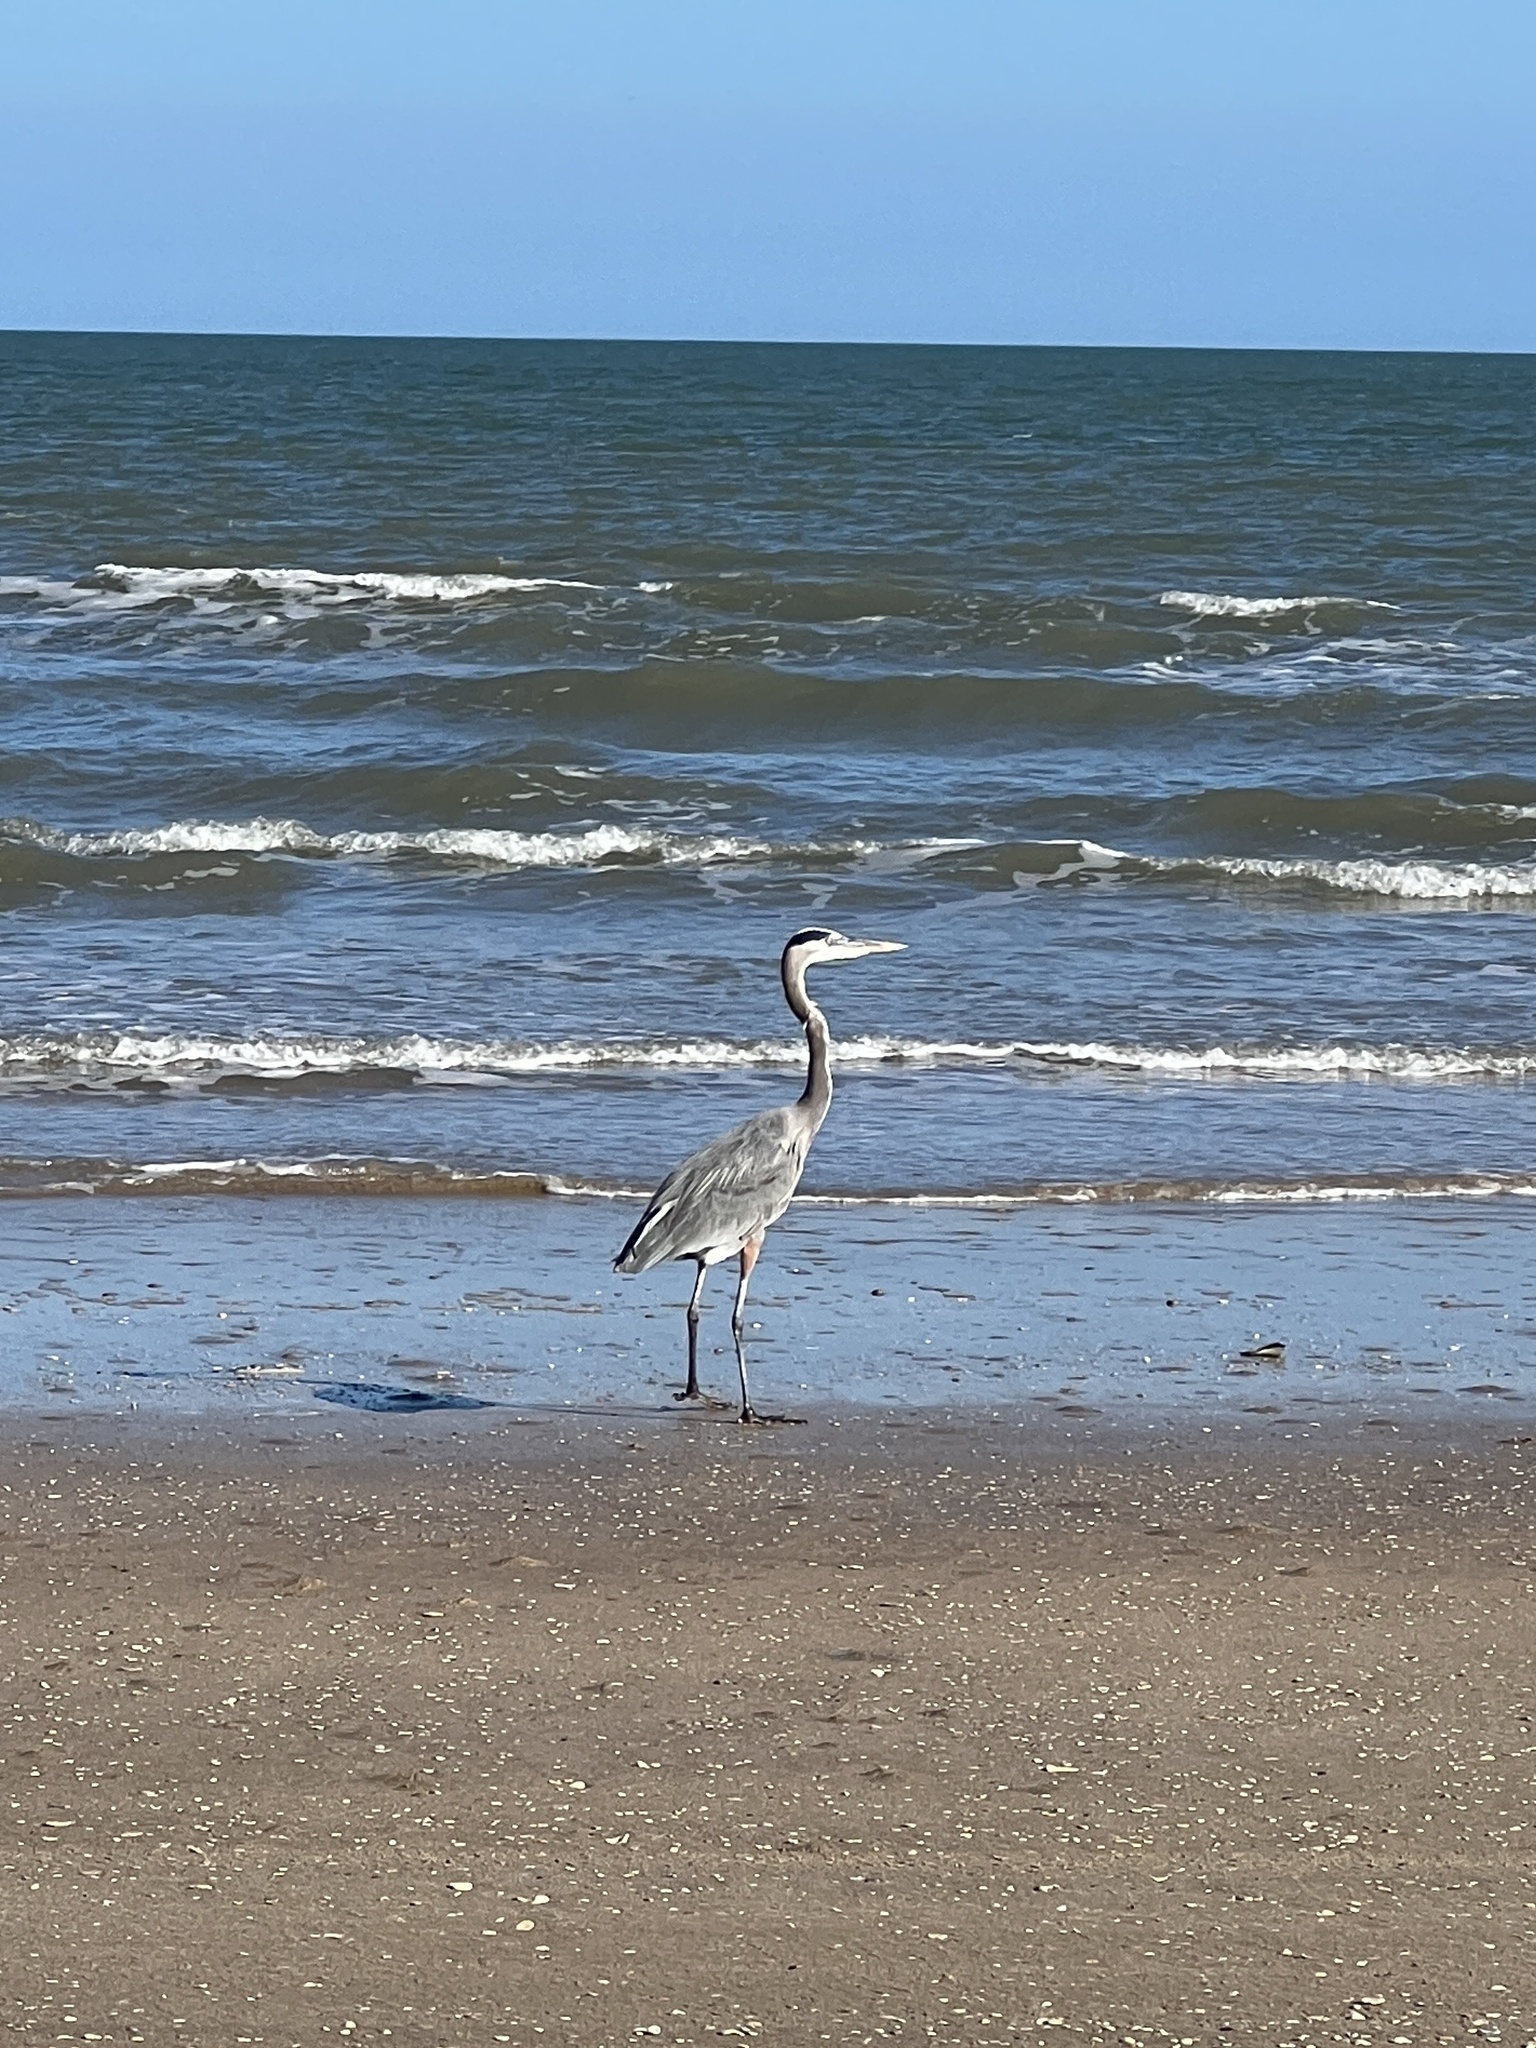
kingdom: Animalia
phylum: Chordata
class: Aves
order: Pelecaniformes
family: Ardeidae
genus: Ardea
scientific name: Ardea herodias
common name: Great blue heron
